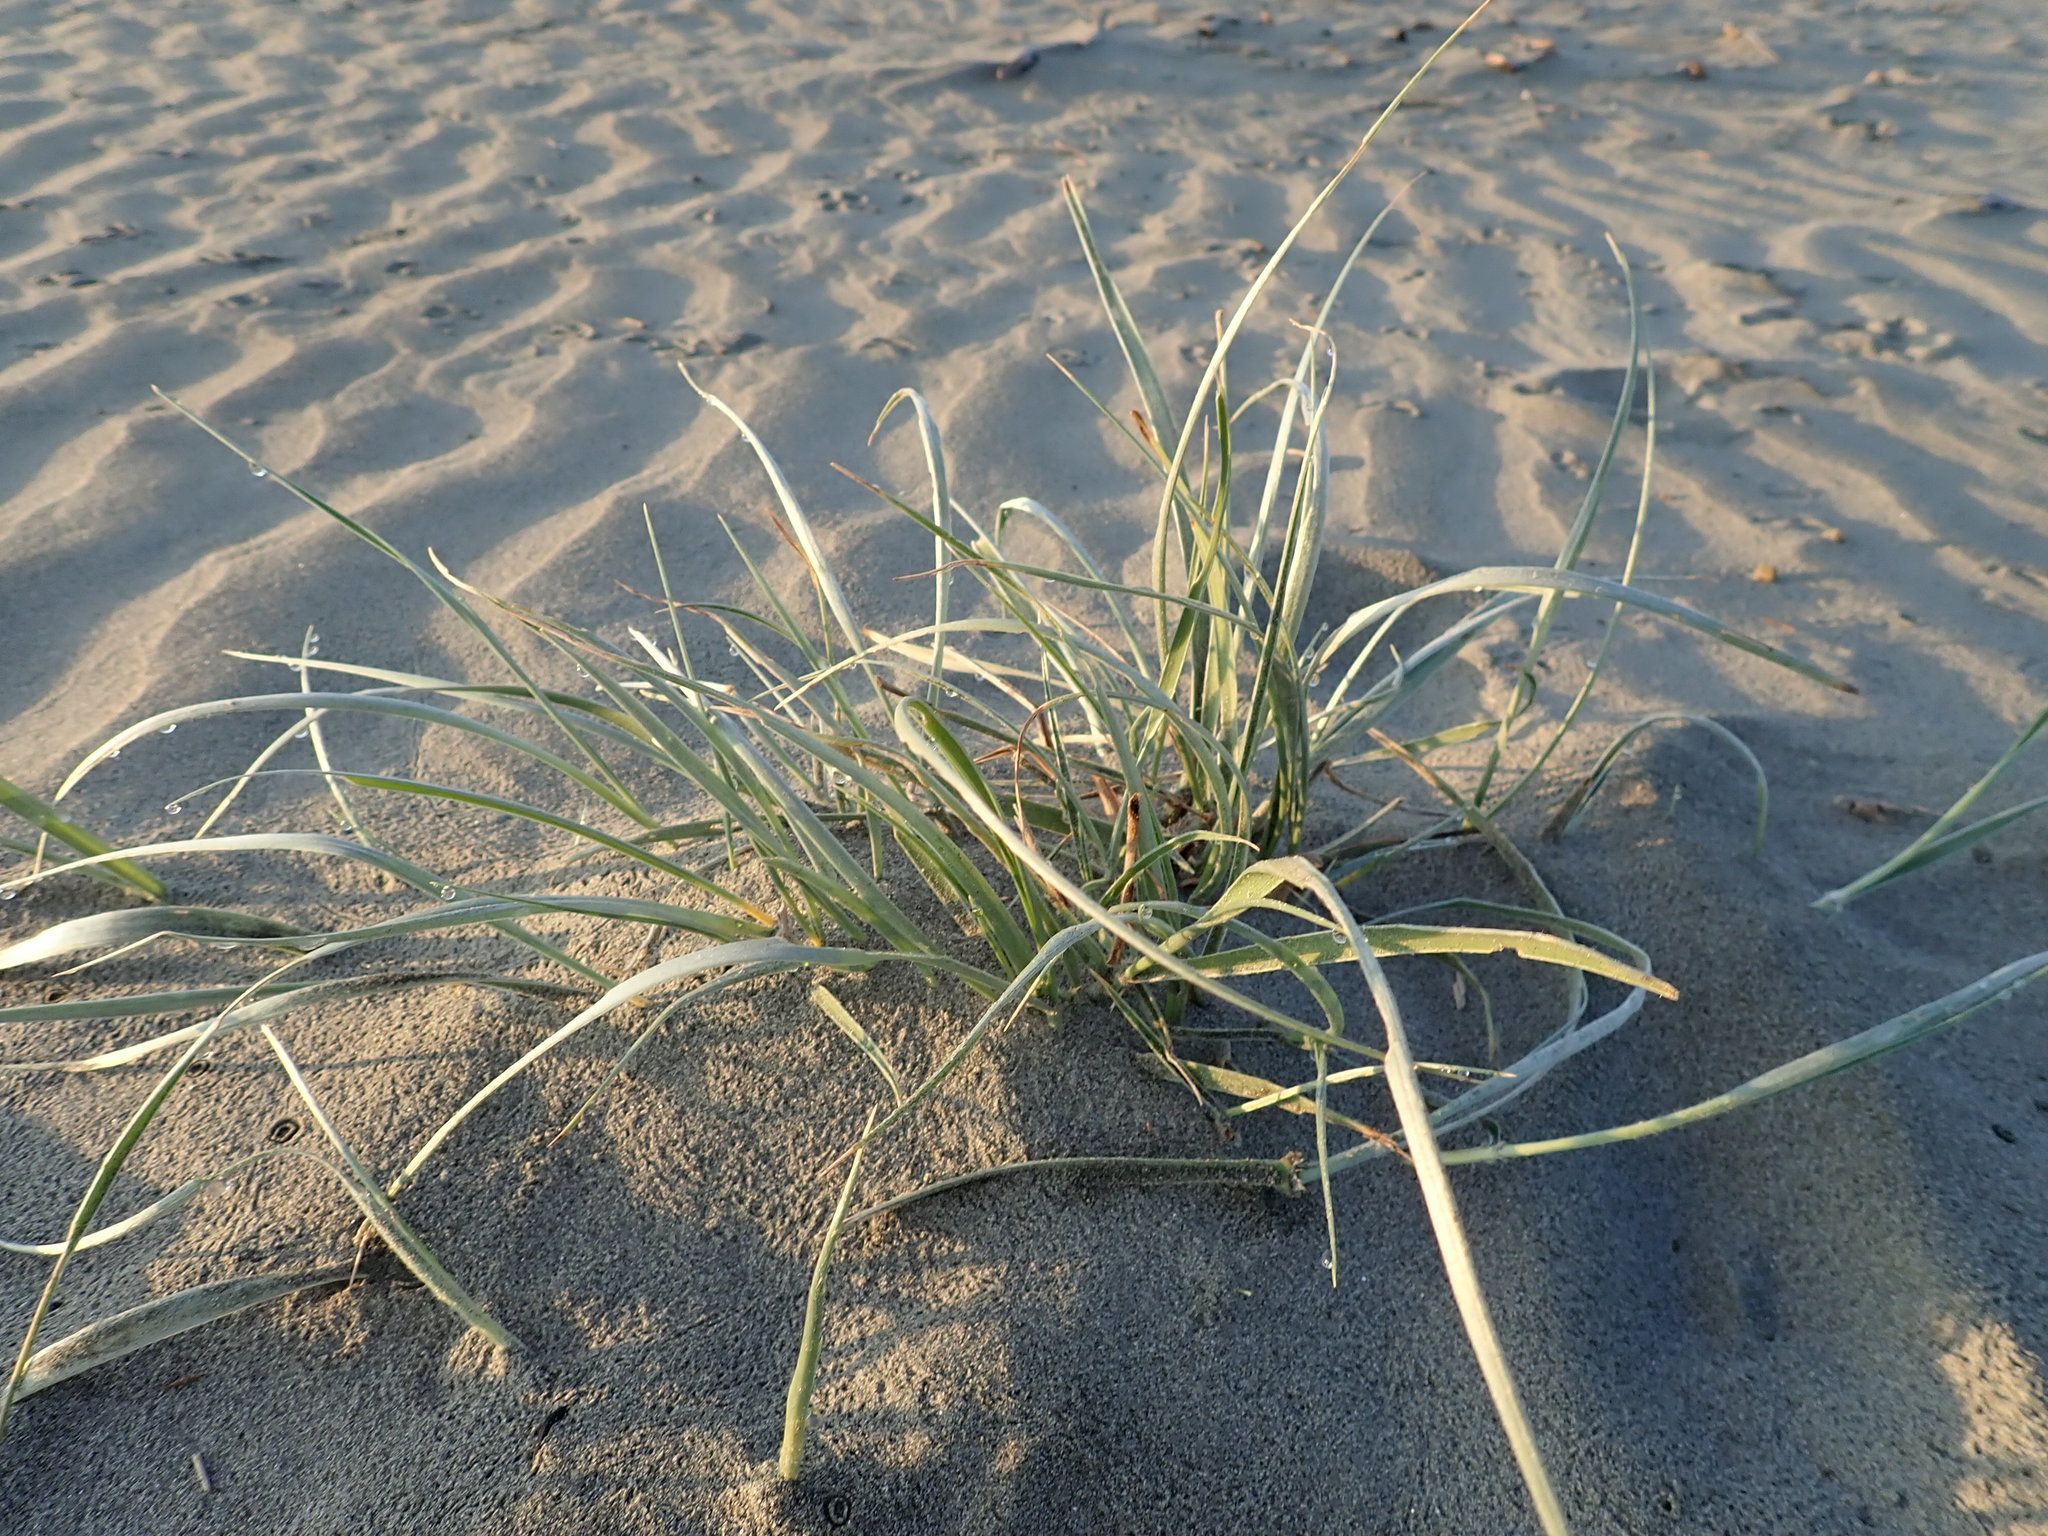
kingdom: Plantae
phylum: Tracheophyta
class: Liliopsida
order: Poales
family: Poaceae
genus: Spinifex
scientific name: Spinifex sericeus
